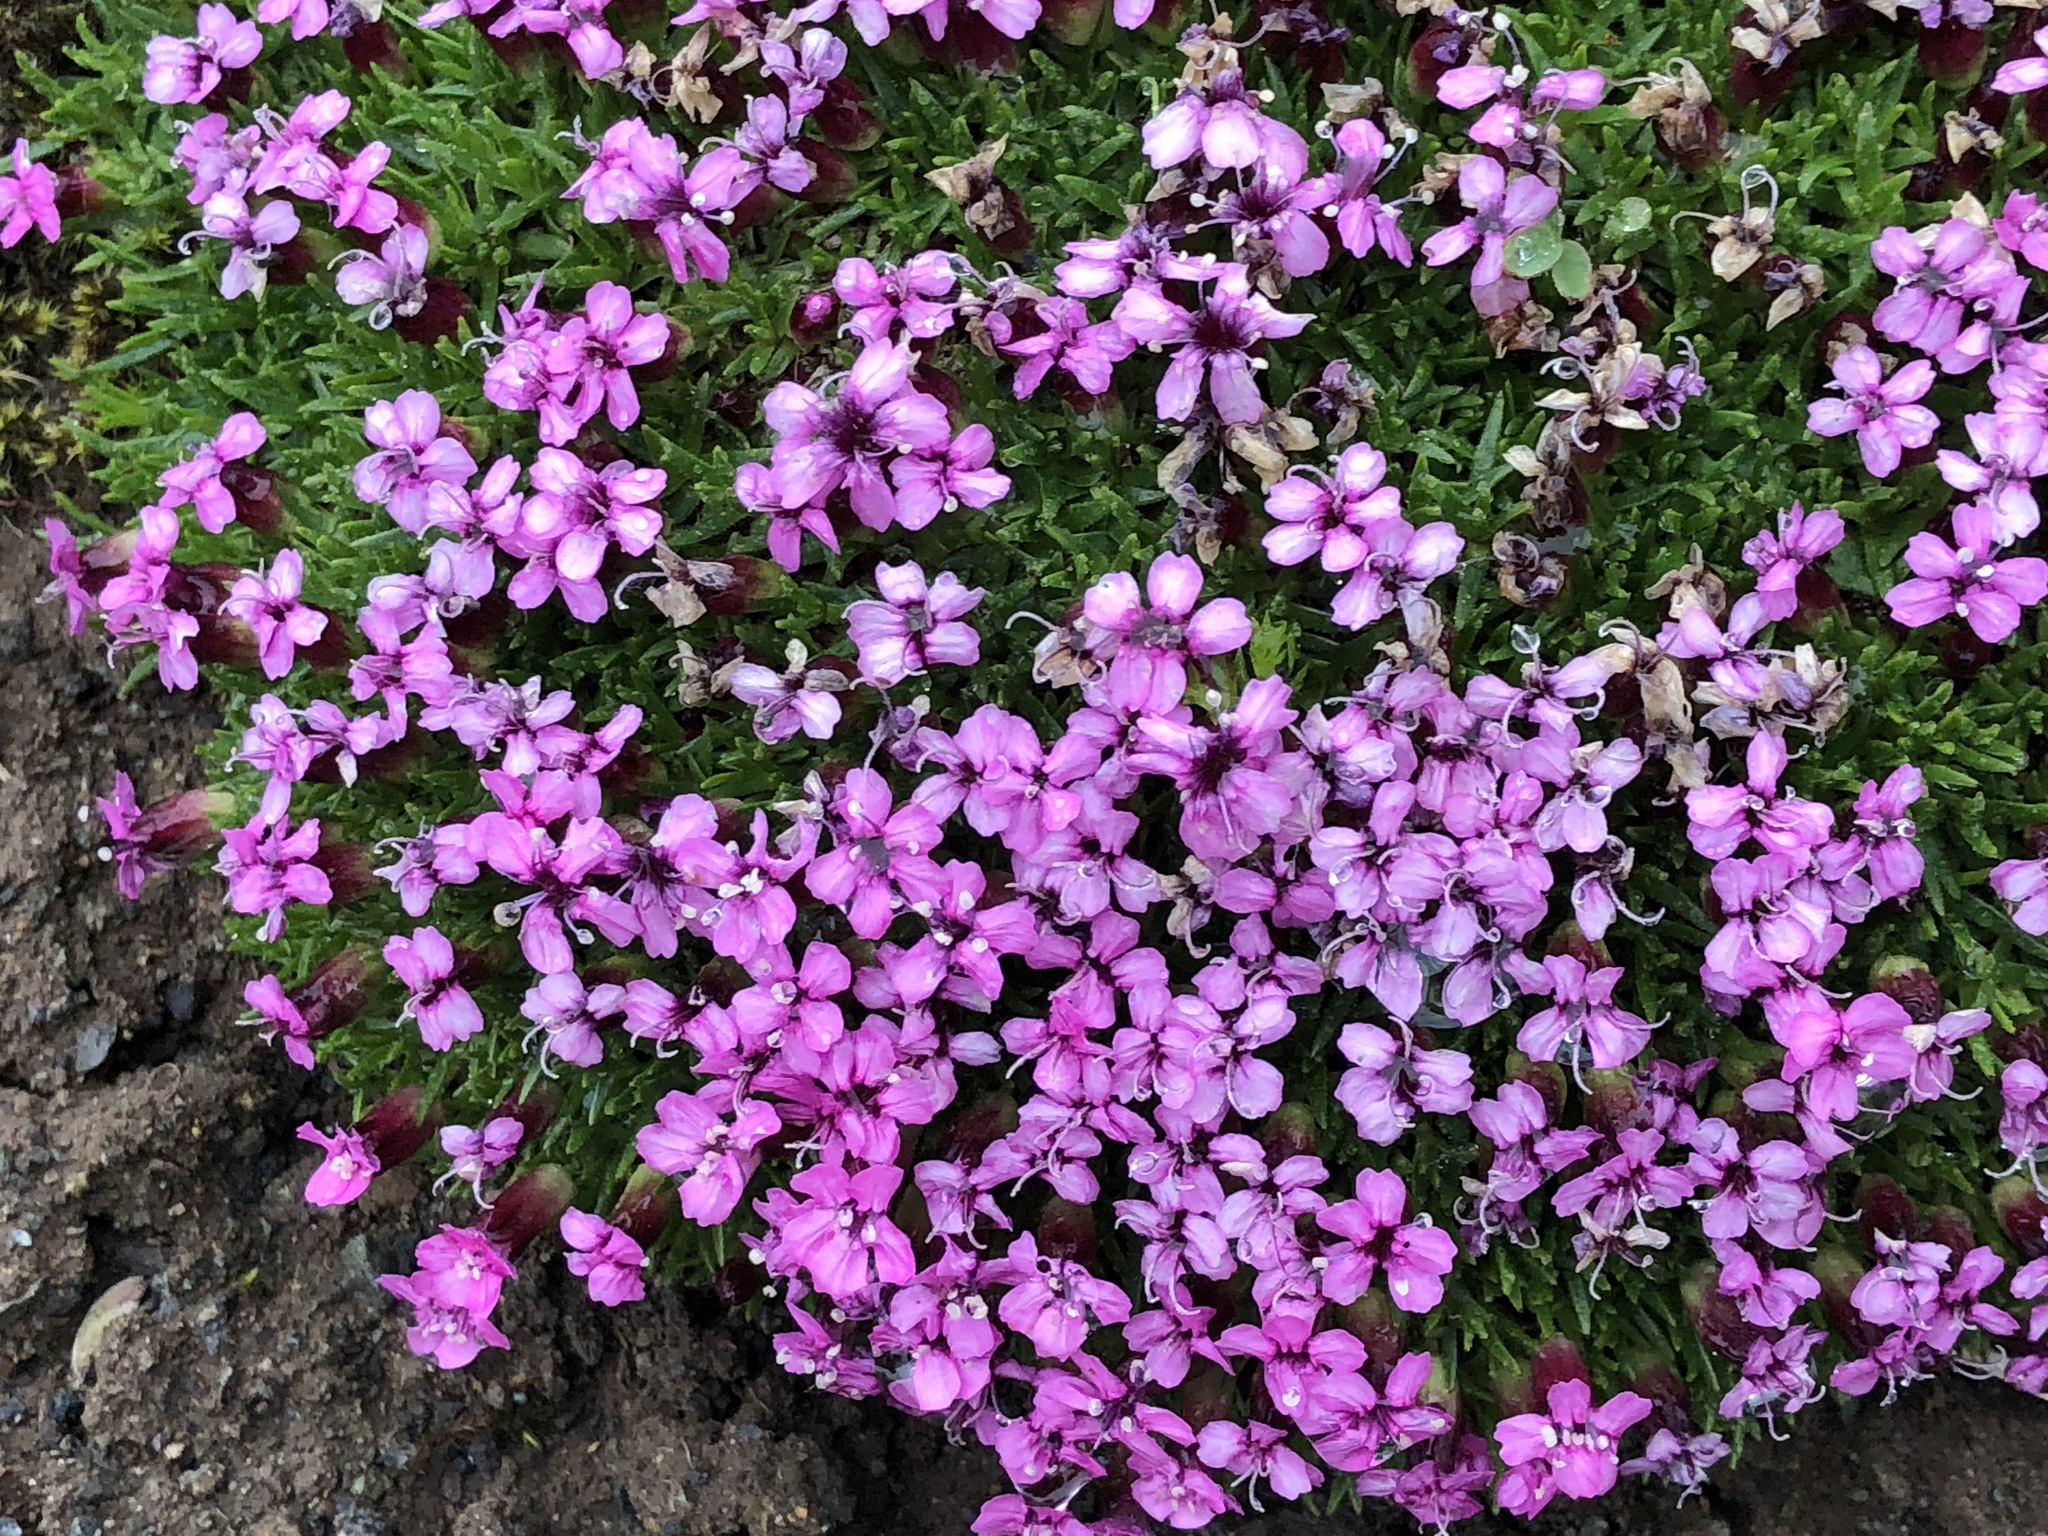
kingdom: Plantae
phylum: Tracheophyta
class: Magnoliopsida
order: Caryophyllales
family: Caryophyllaceae
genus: Silene
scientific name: Silene acaulis
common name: Moss campion
